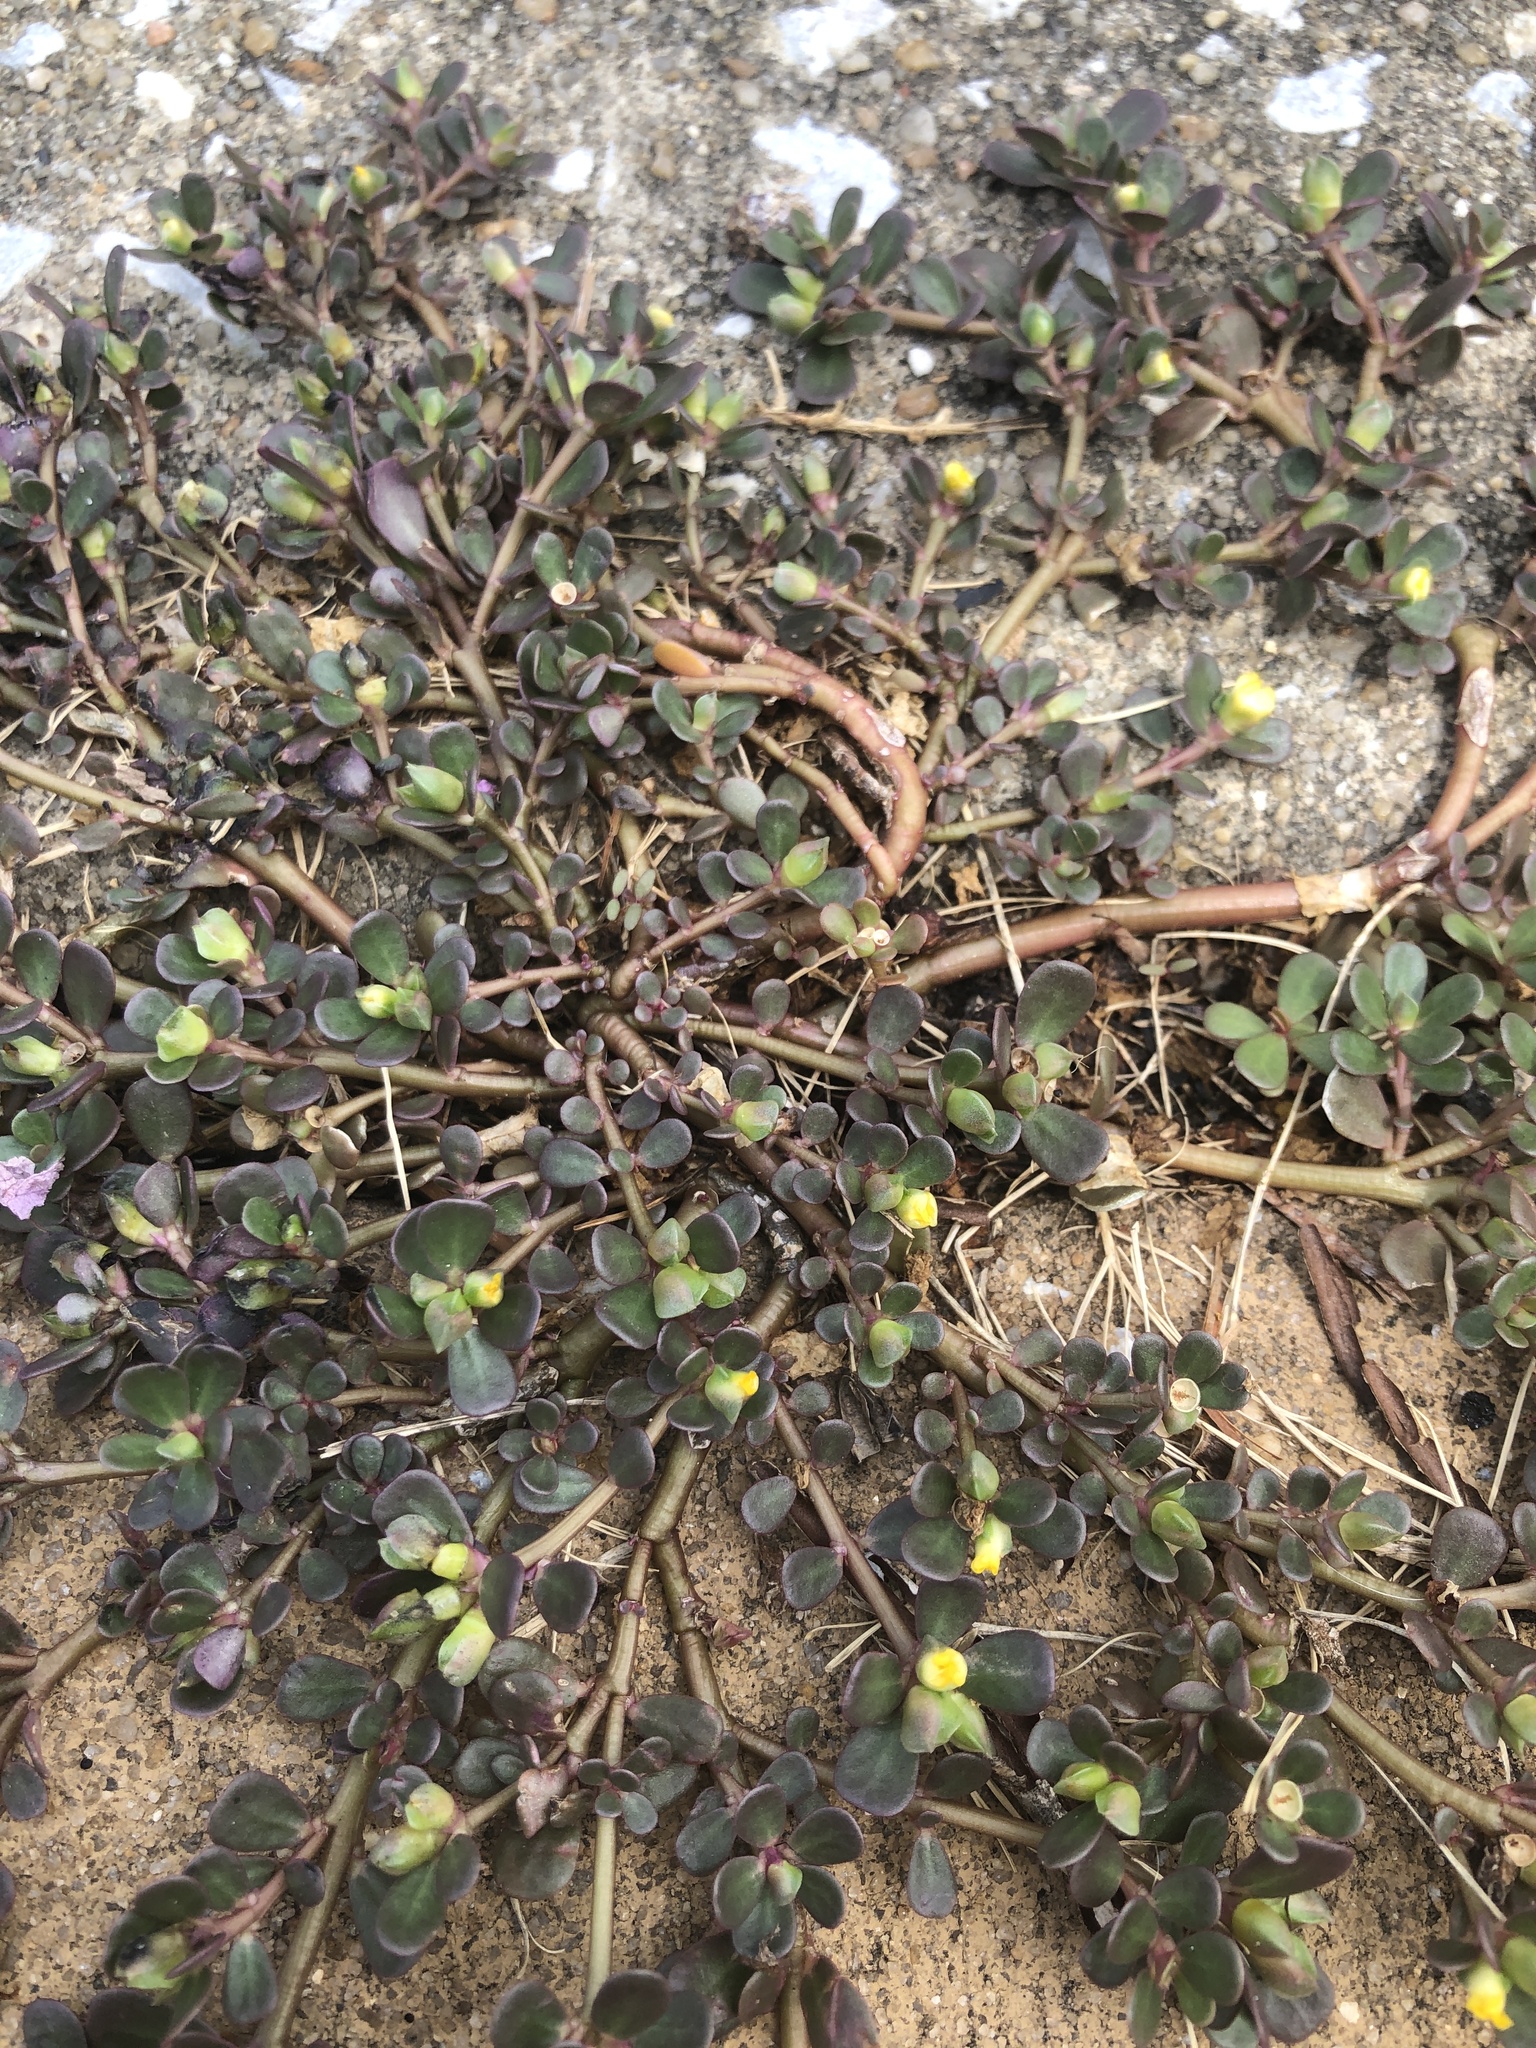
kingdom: Plantae
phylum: Tracheophyta
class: Magnoliopsida
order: Caryophyllales
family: Portulacaceae
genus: Portulaca
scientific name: Portulaca oleracea
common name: Common purslane
